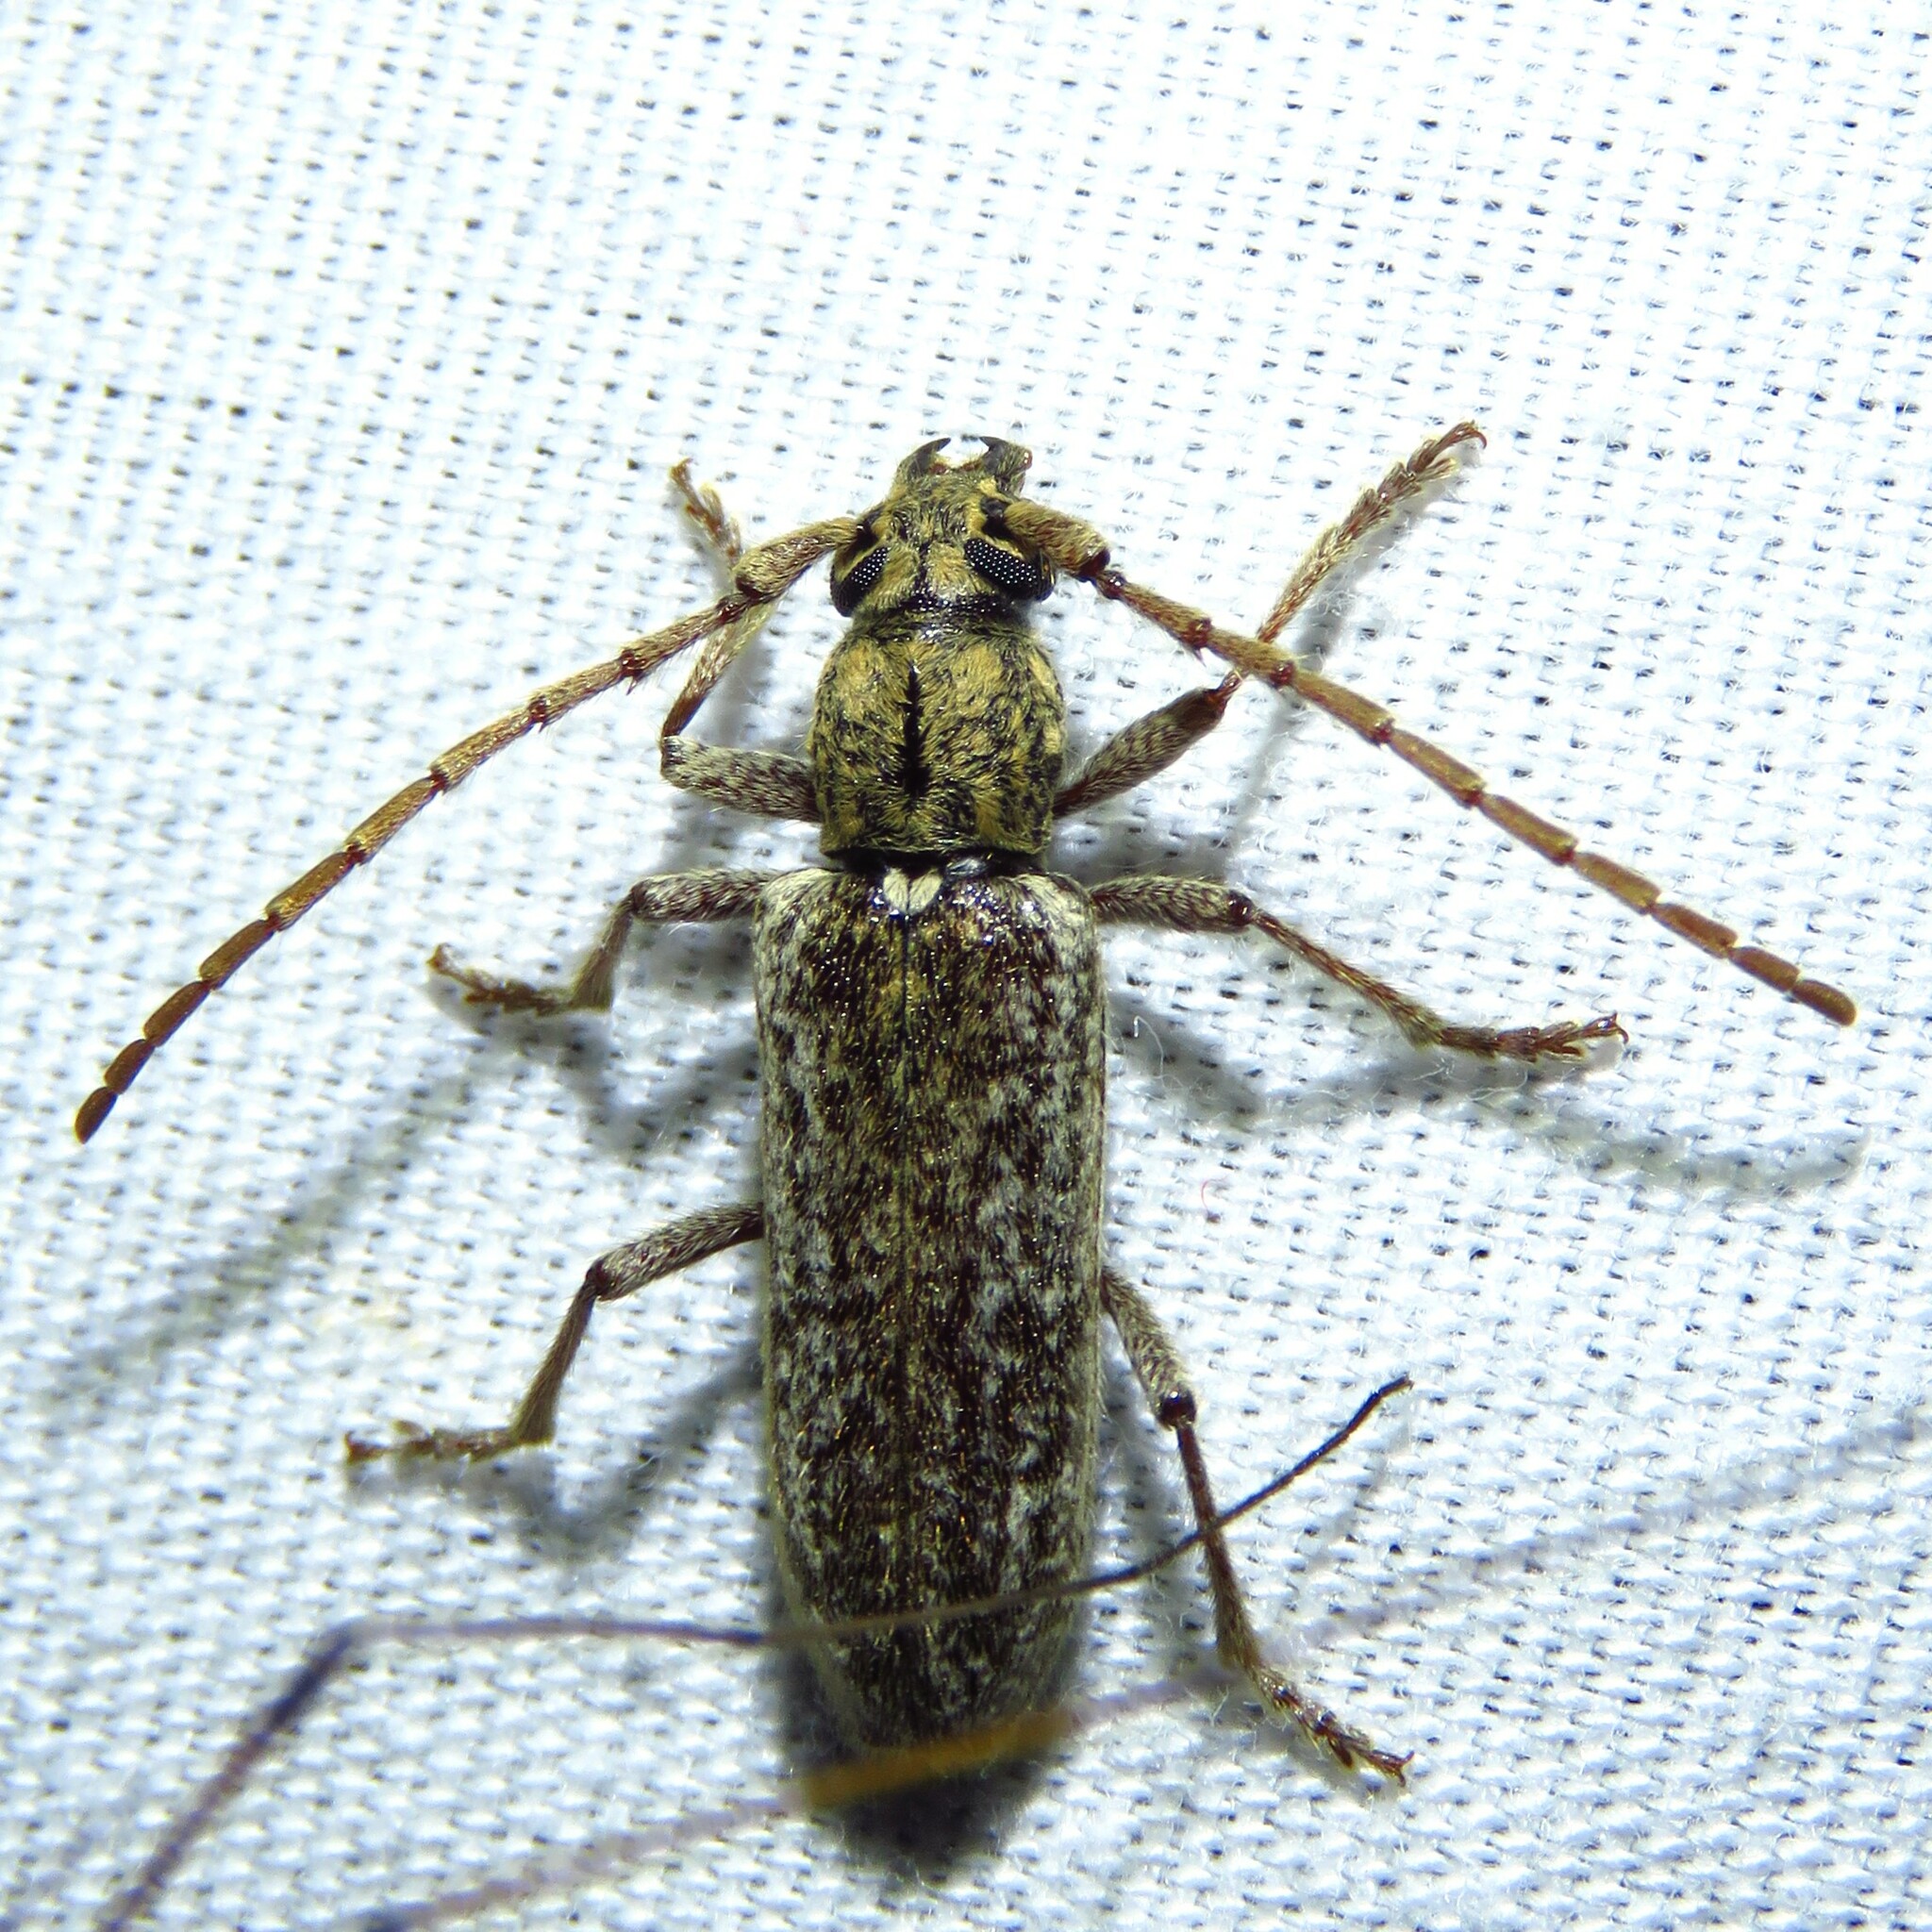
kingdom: Animalia
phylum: Arthropoda
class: Insecta
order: Coleoptera
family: Cerambycidae
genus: Anelaphus
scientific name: Anelaphus debilis
